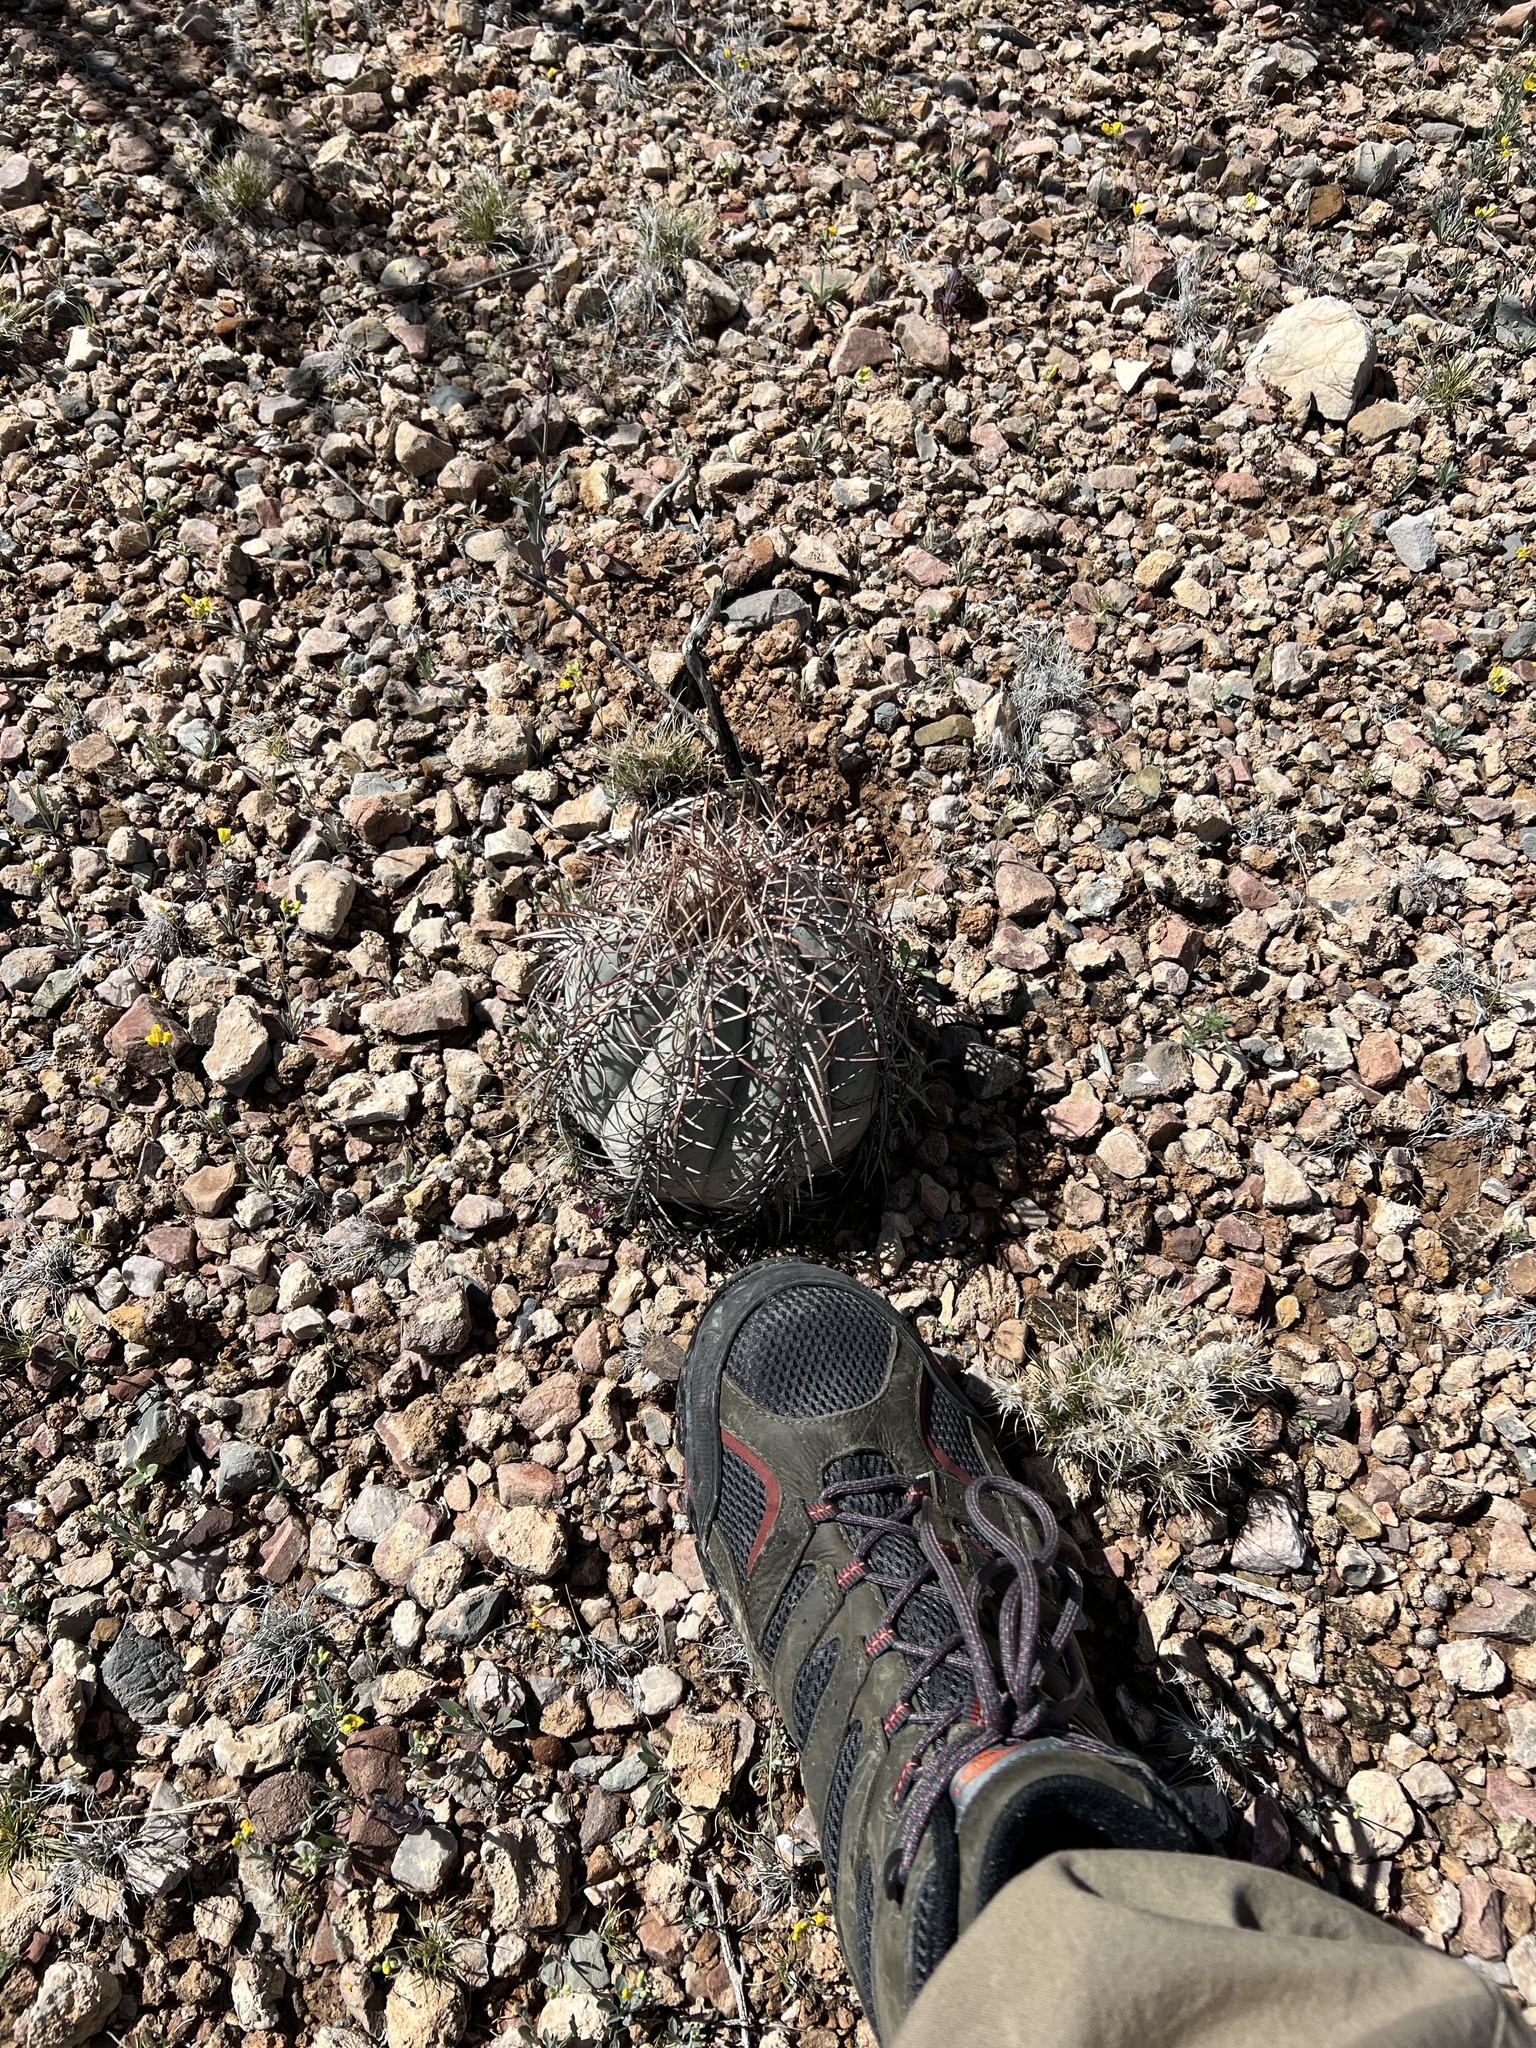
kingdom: Plantae
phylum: Tracheophyta
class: Magnoliopsida
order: Caryophyllales
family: Cactaceae
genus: Echinocactus
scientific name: Echinocactus horizonthalonius
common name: Devilshead
